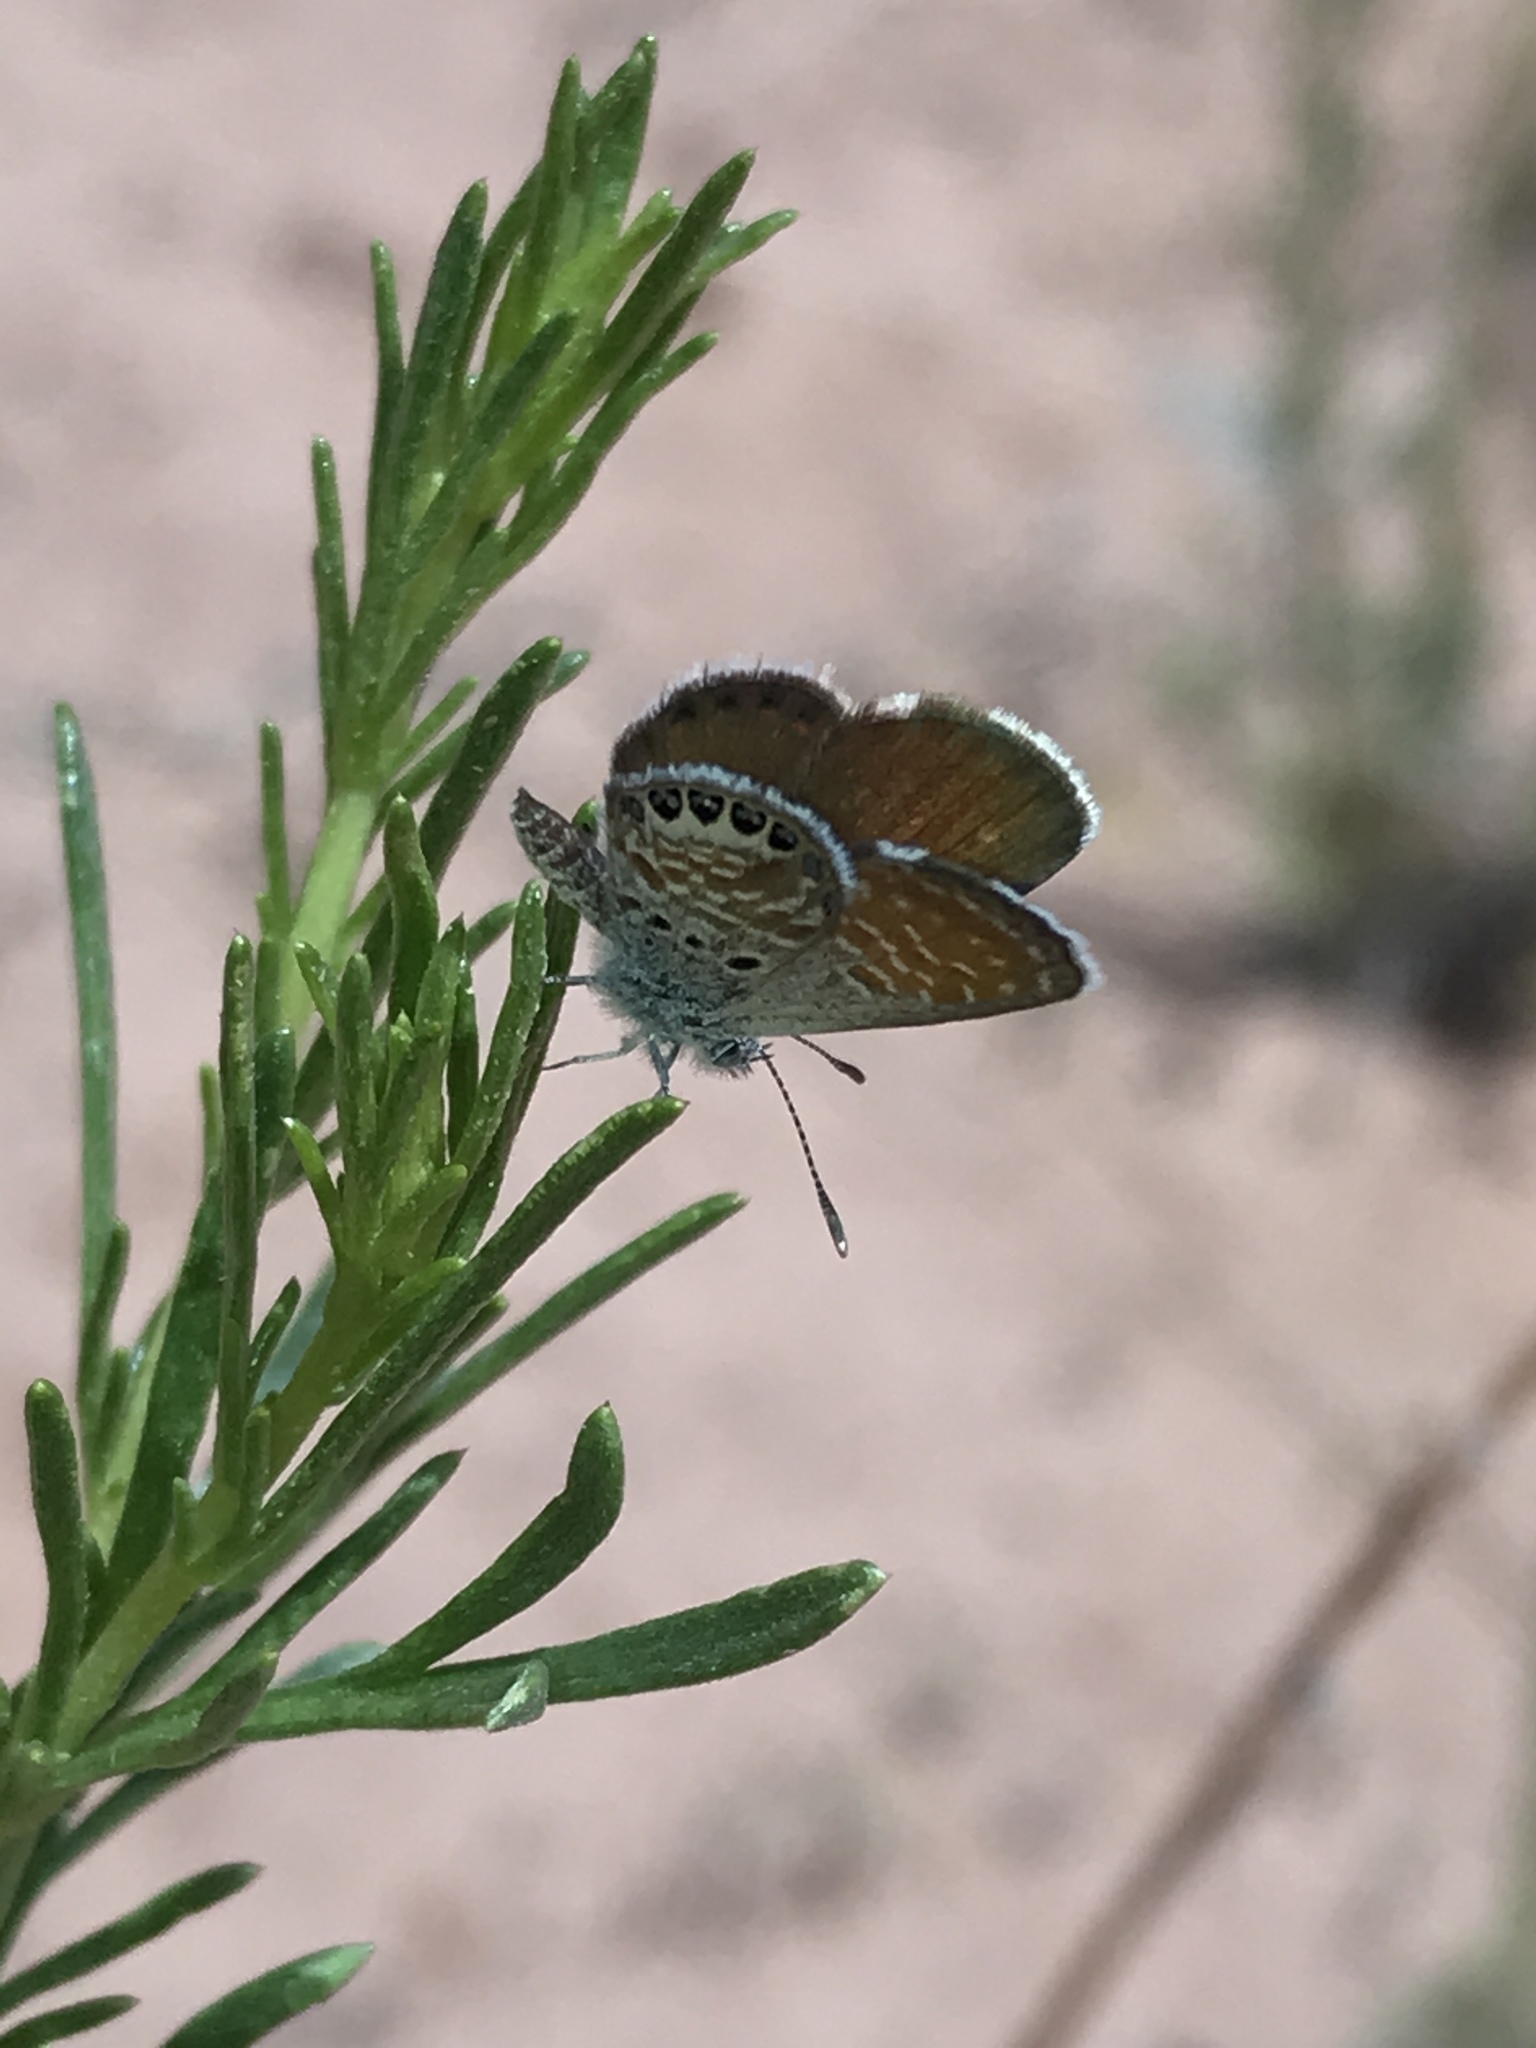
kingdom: Animalia
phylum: Arthropoda
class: Insecta
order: Lepidoptera
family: Lycaenidae
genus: Brephidium
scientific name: Brephidium exilis
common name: Pygmy blue
